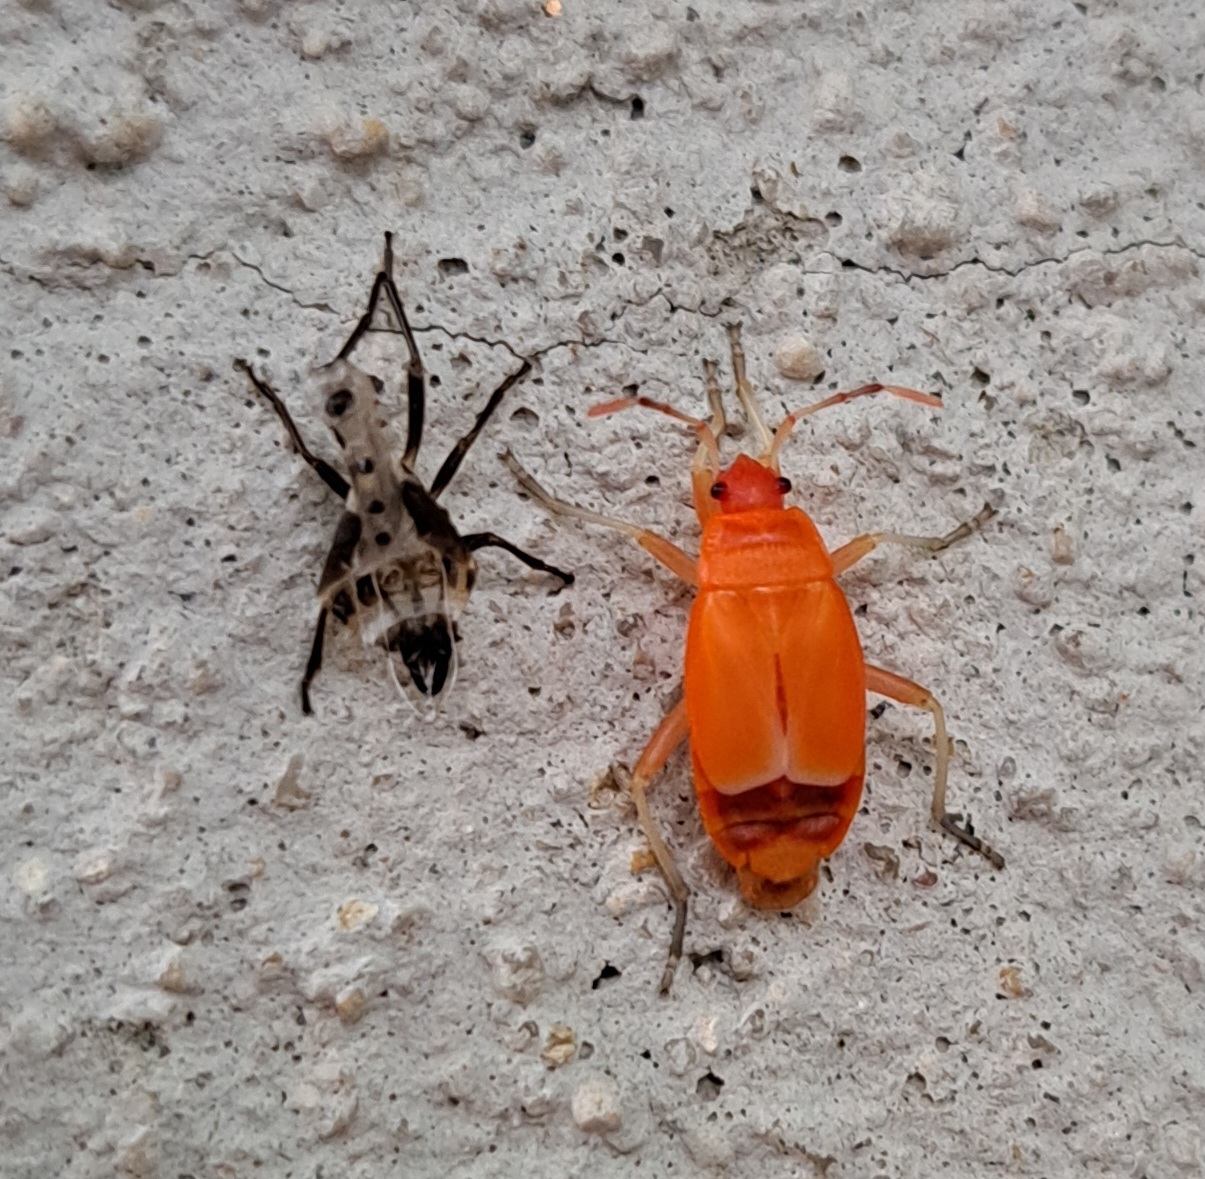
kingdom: Animalia
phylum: Arthropoda
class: Insecta
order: Hemiptera
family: Pyrrhocoridae
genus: Pyrrhocoris
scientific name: Pyrrhocoris apterus
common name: Firebug
